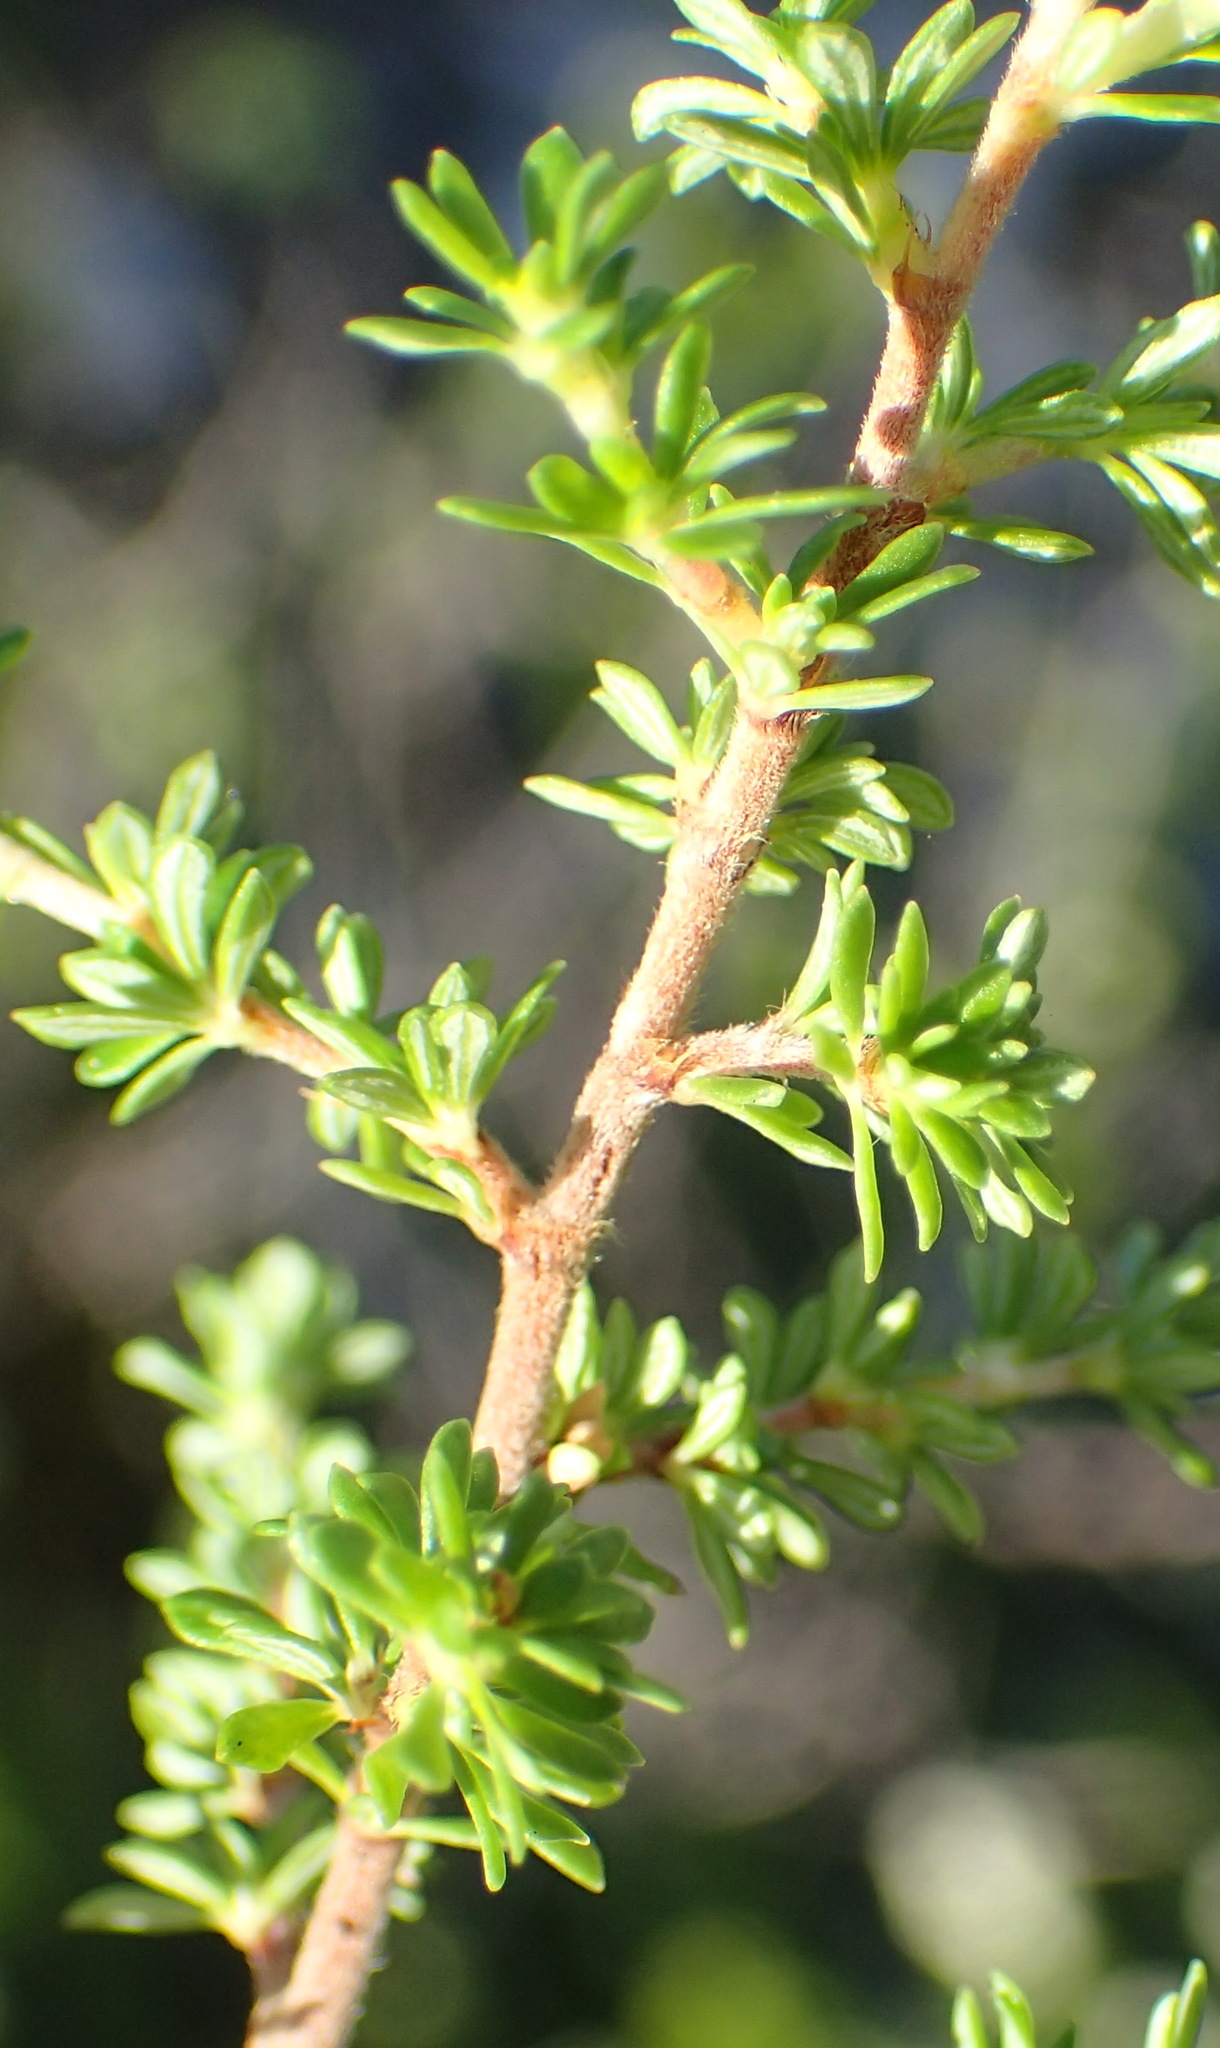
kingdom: Plantae
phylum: Tracheophyta
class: Magnoliopsida
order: Rosales
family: Rosaceae
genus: Cliffortia
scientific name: Cliffortia serpyllifolia
